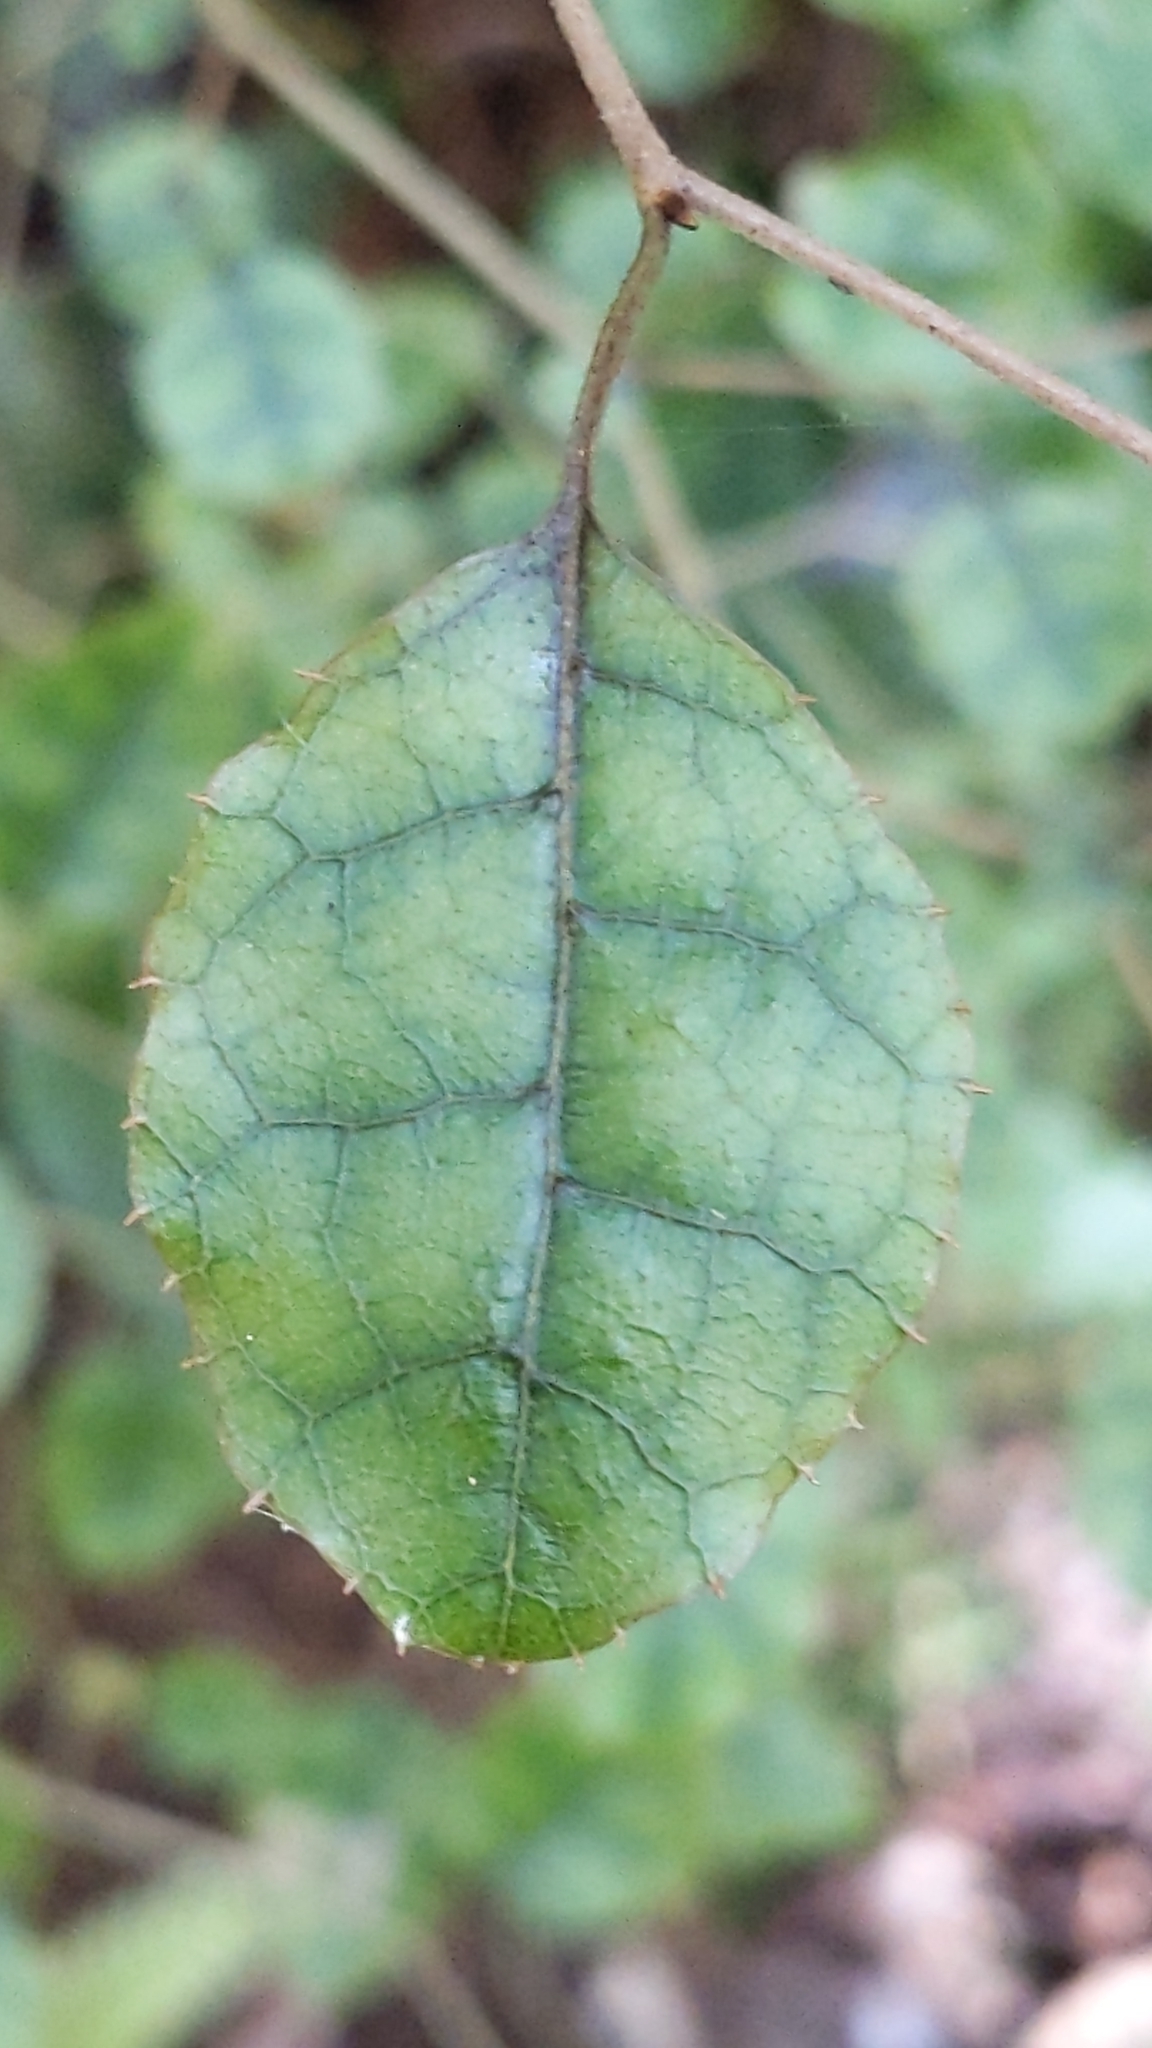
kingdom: Plantae
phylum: Tracheophyta
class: Magnoliopsida
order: Asterales
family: Rousseaceae
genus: Carpodetus
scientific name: Carpodetus serratus
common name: White mapau
